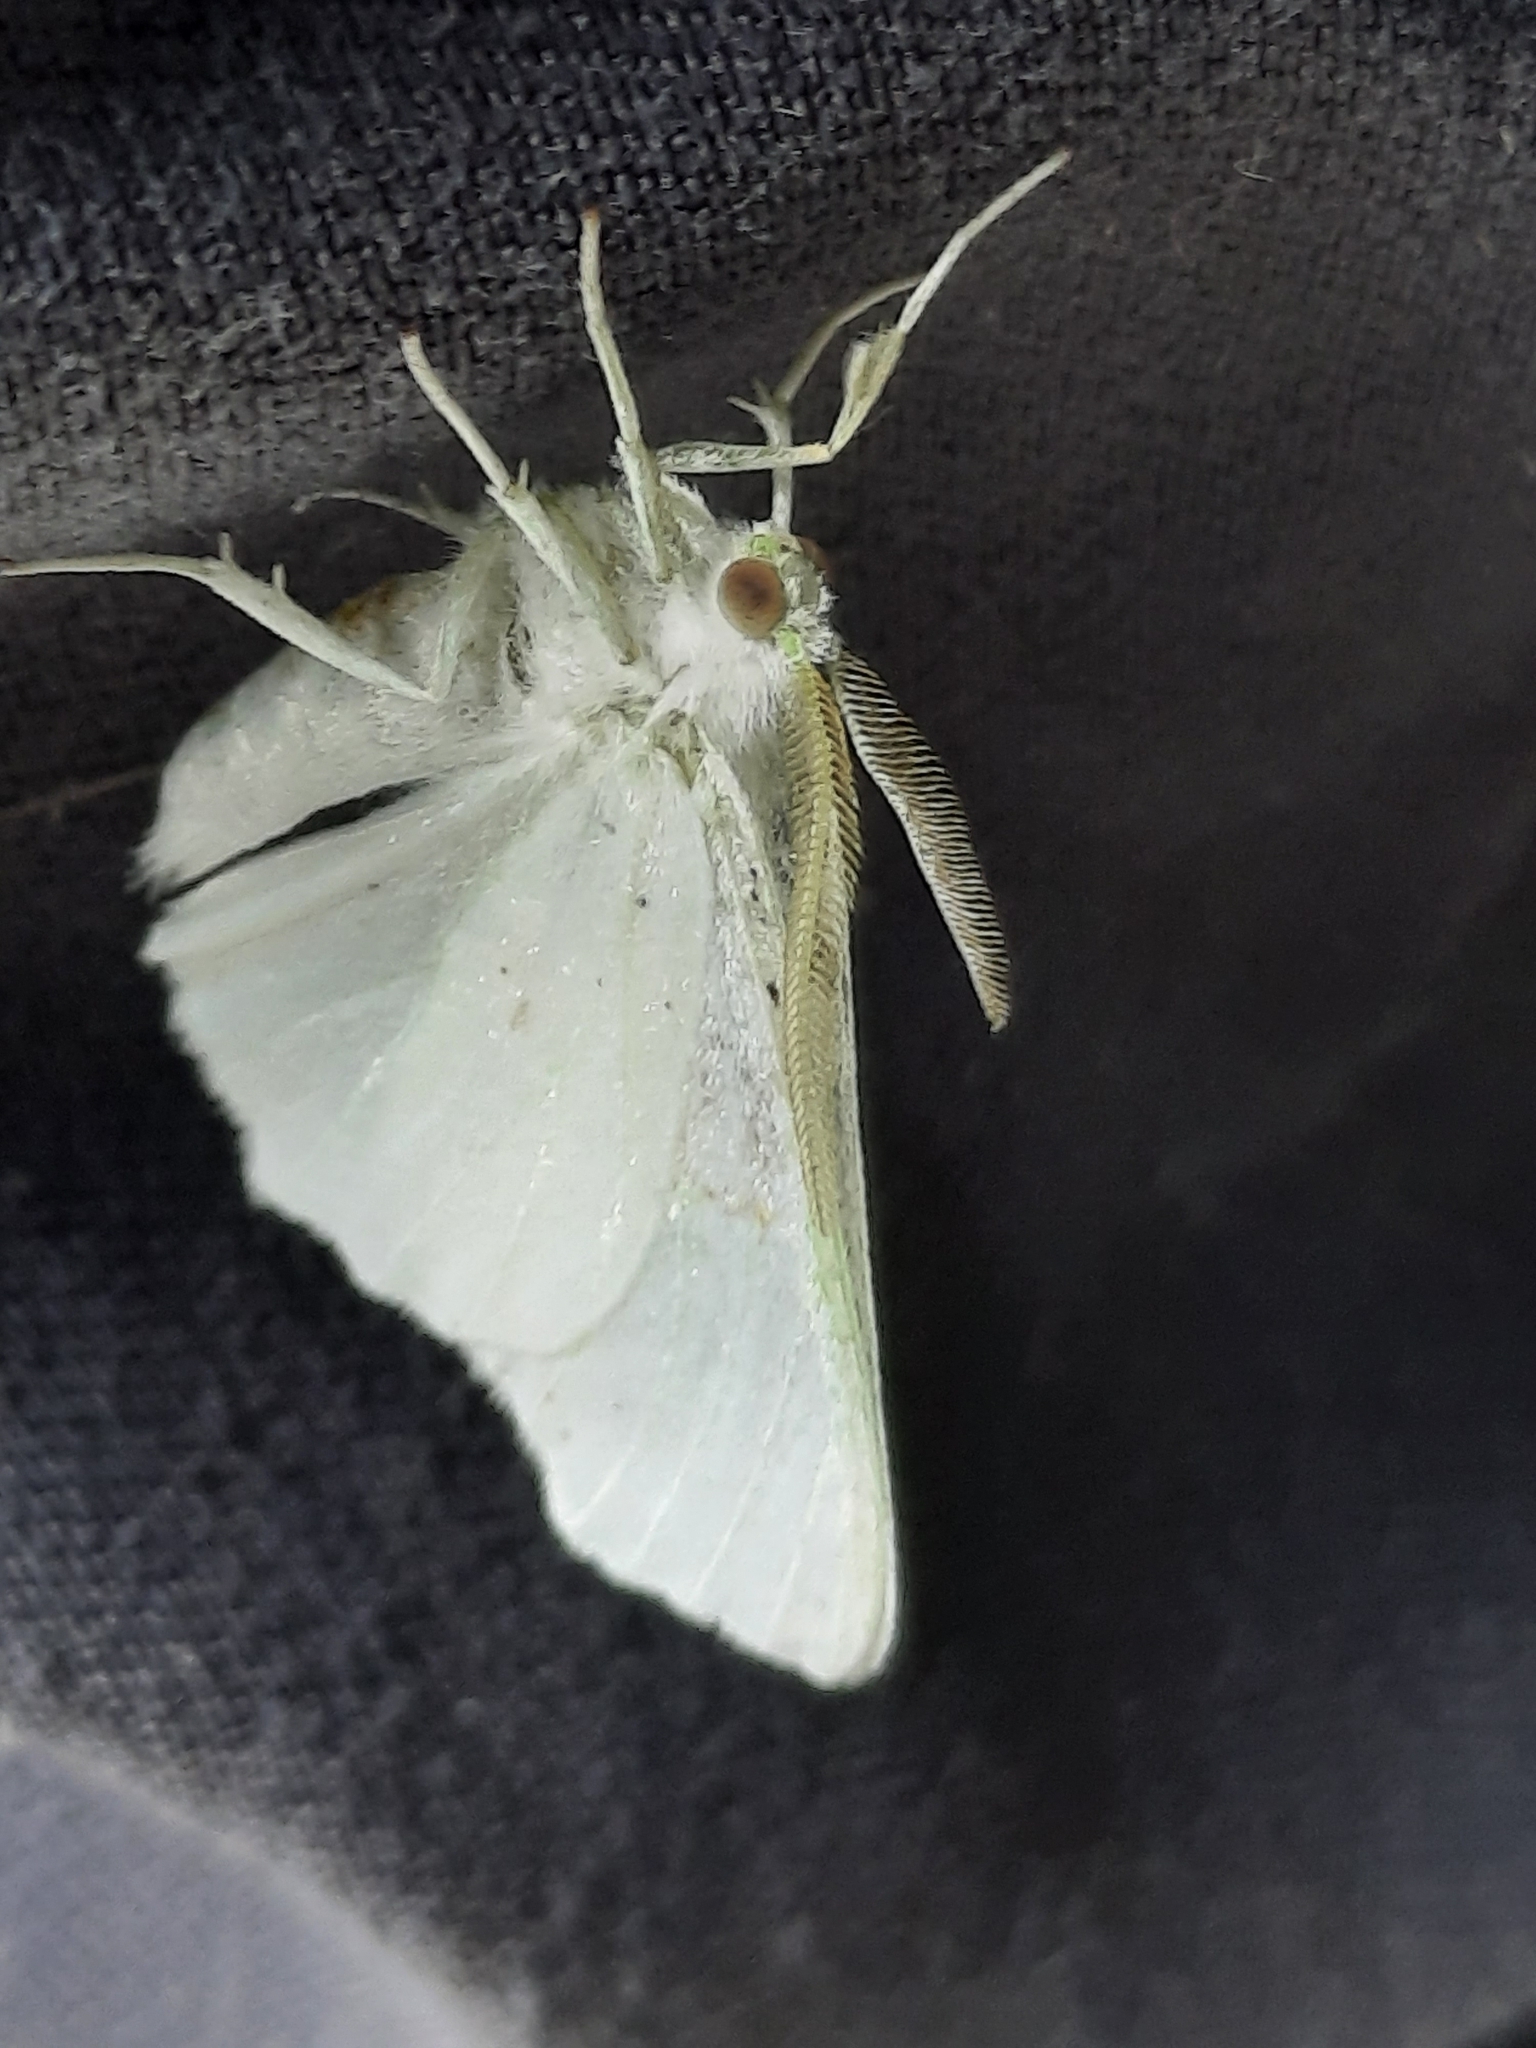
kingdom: Animalia
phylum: Arthropoda
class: Insecta
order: Lepidoptera
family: Geometridae
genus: Ennomos
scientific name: Ennomos subsignaria
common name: Elm spanworm
